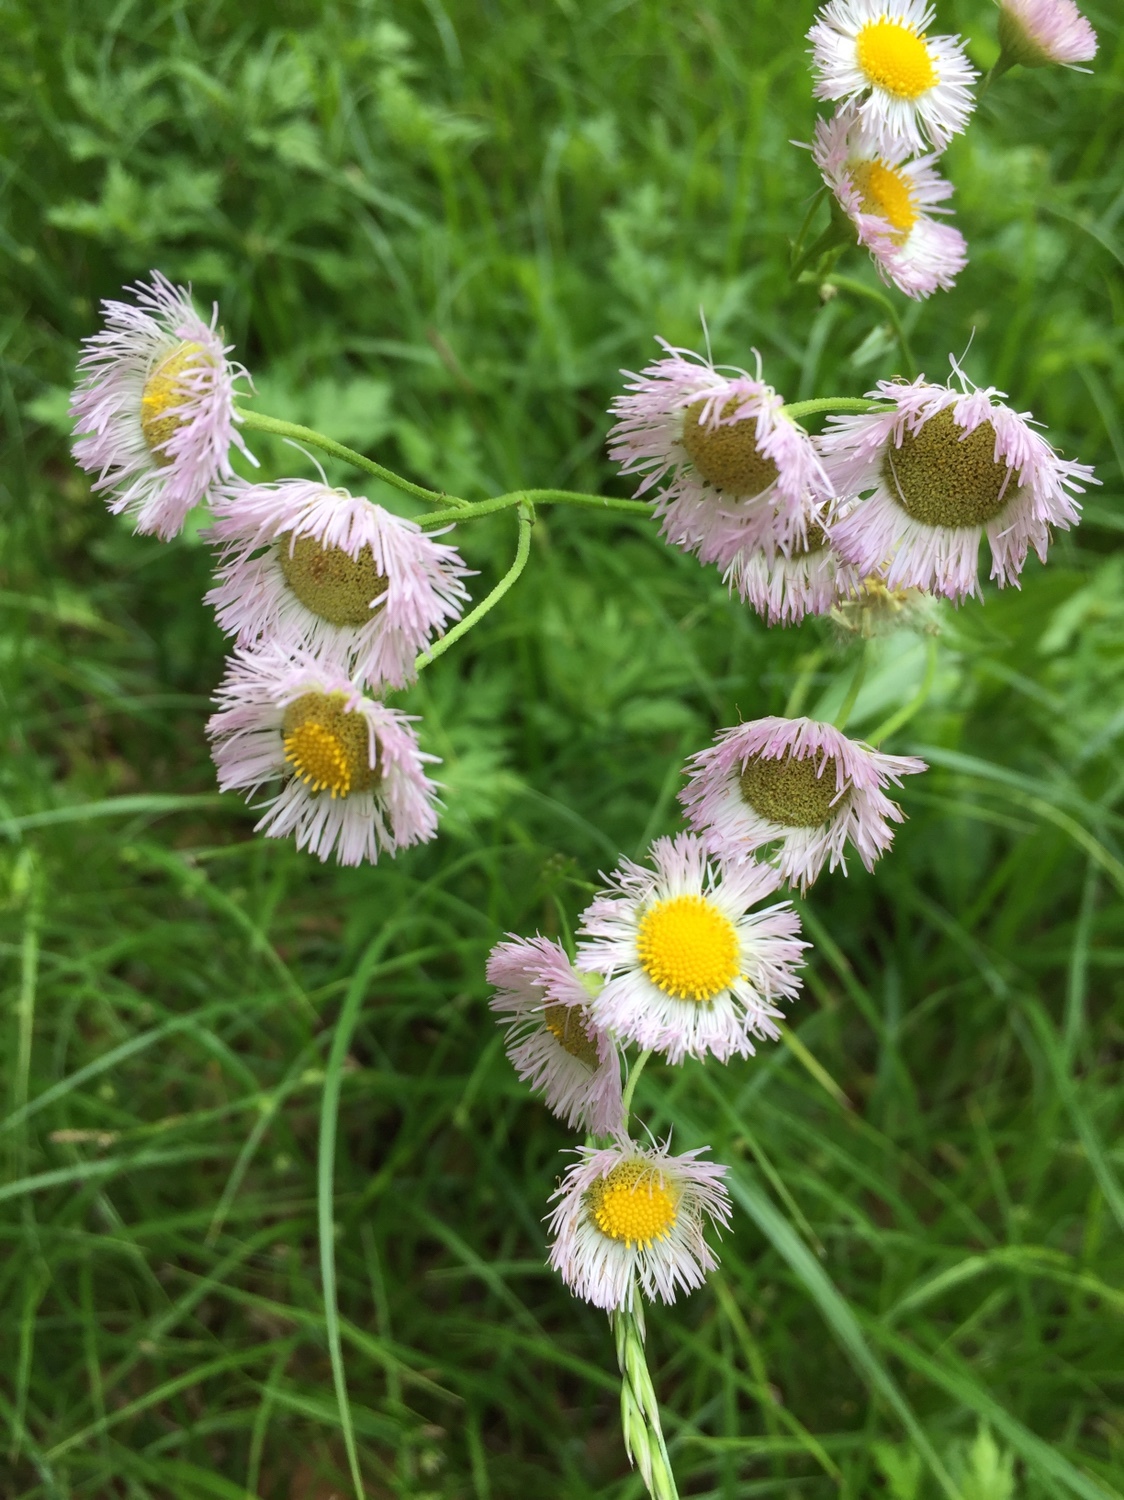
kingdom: Plantae
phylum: Tracheophyta
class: Magnoliopsida
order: Asterales
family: Asteraceae
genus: Erigeron
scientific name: Erigeron philadelphicus
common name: Robin's-plantain
